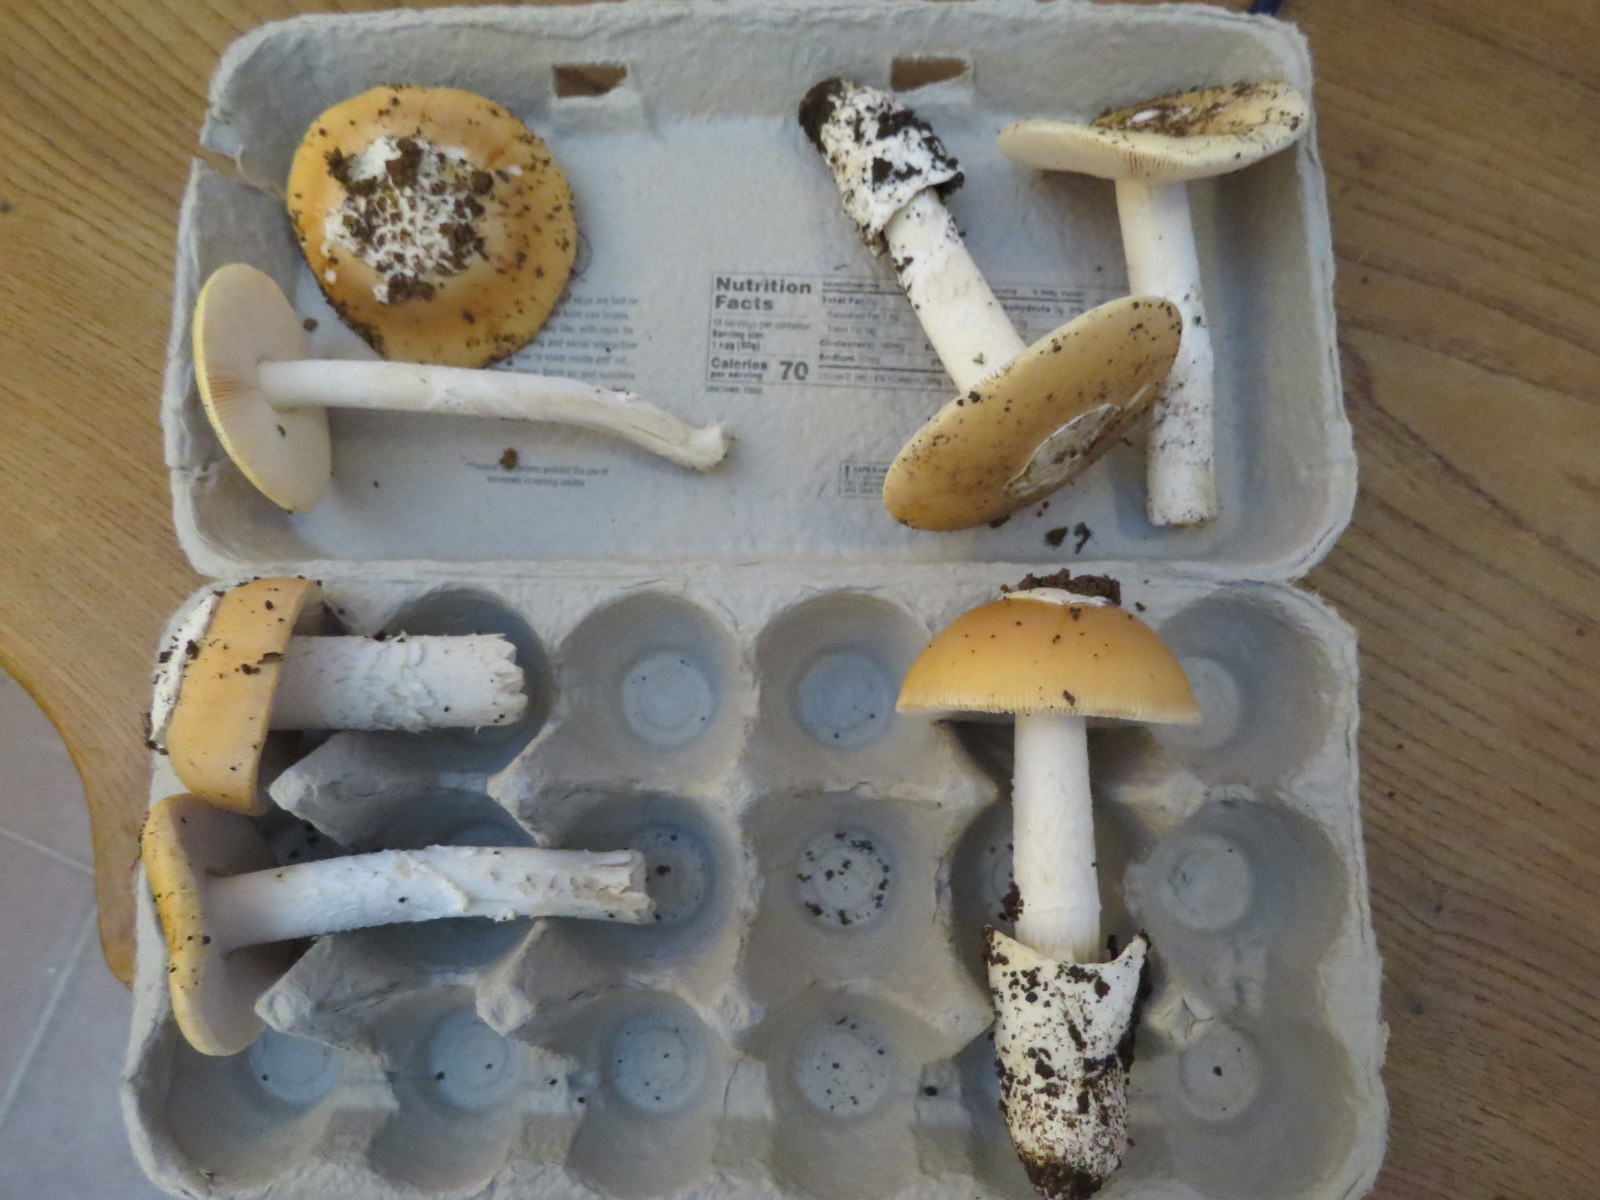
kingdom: Fungi
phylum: Basidiomycota
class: Agaricomycetes
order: Agaricales
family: Amanitaceae
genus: Amanita
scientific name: Amanita velosa
